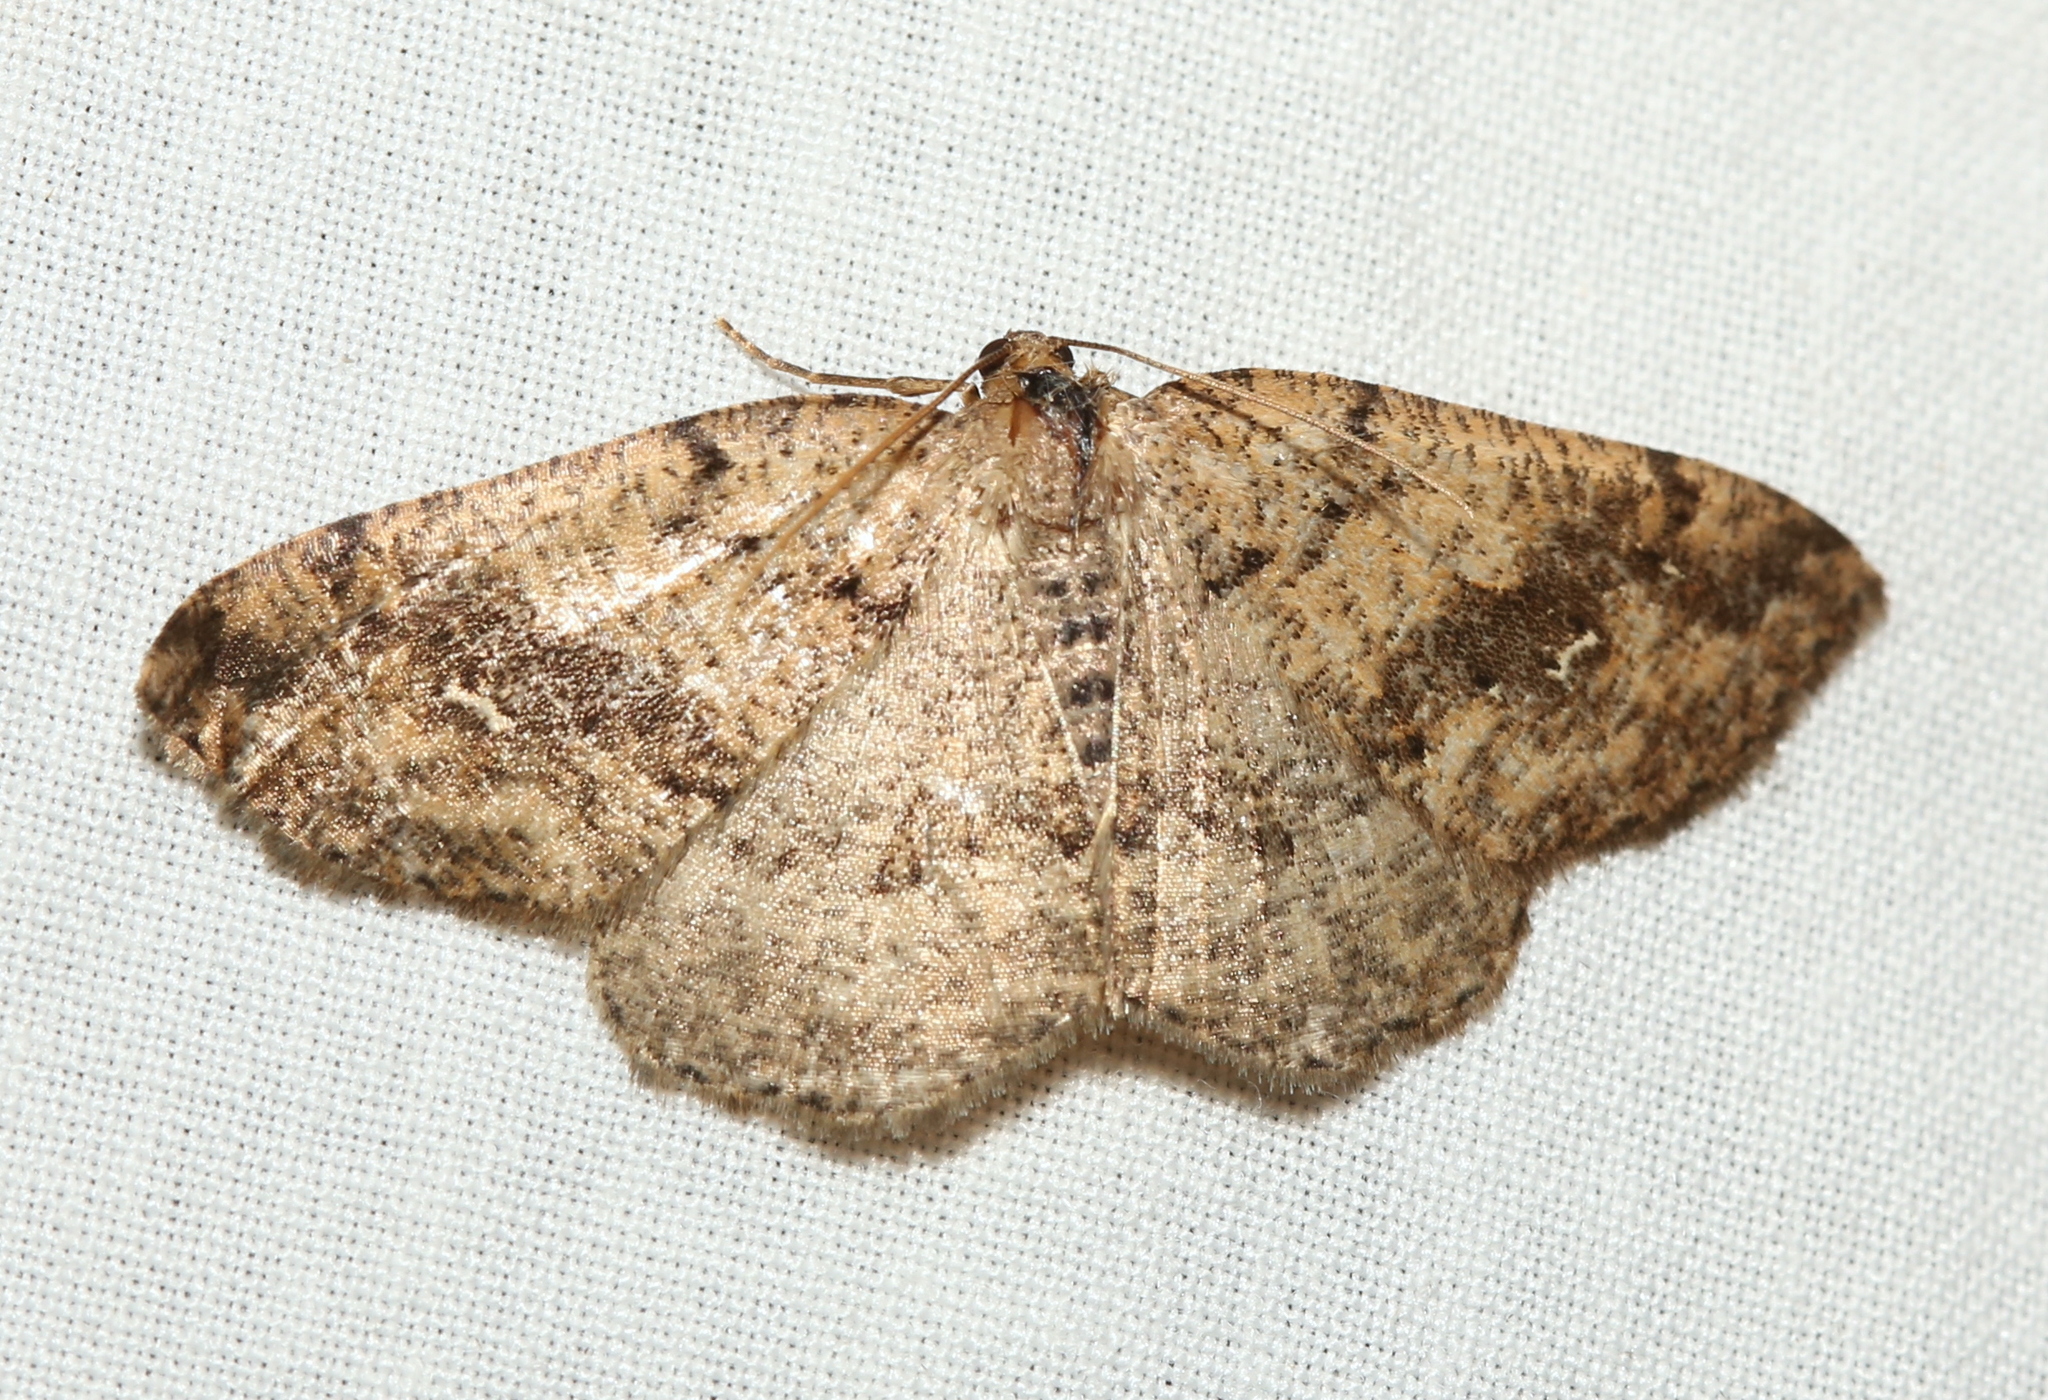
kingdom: Animalia
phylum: Arthropoda
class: Insecta
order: Lepidoptera
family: Geometridae
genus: Homochlodes
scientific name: Homochlodes fritillaria
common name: Pale homochlodes
